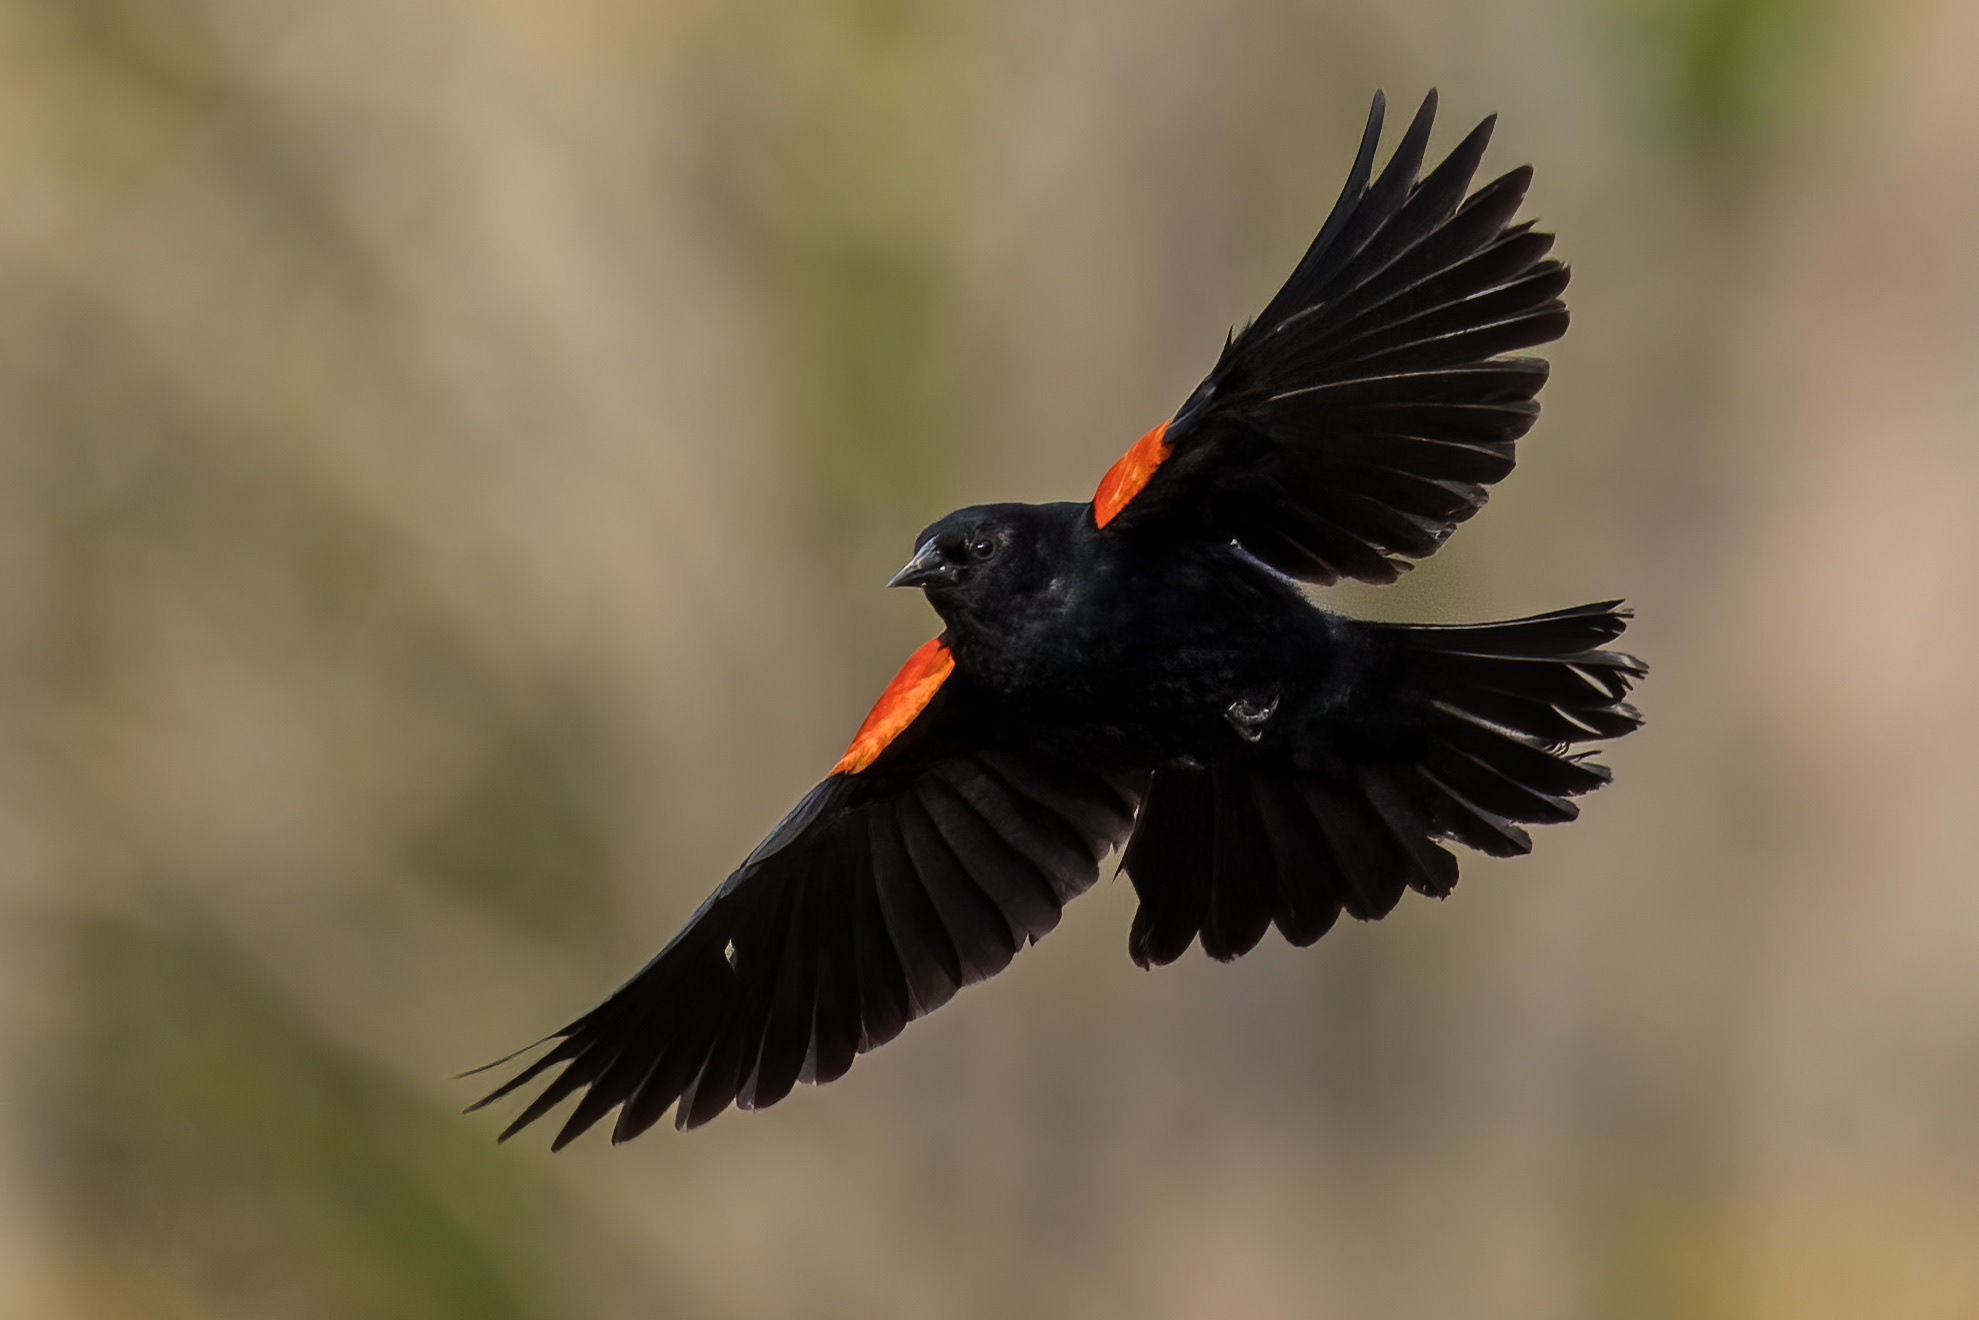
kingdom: Animalia
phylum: Chordata
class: Aves
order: Passeriformes
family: Icteridae
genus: Agelaius
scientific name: Agelaius phoeniceus
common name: Red-winged blackbird
